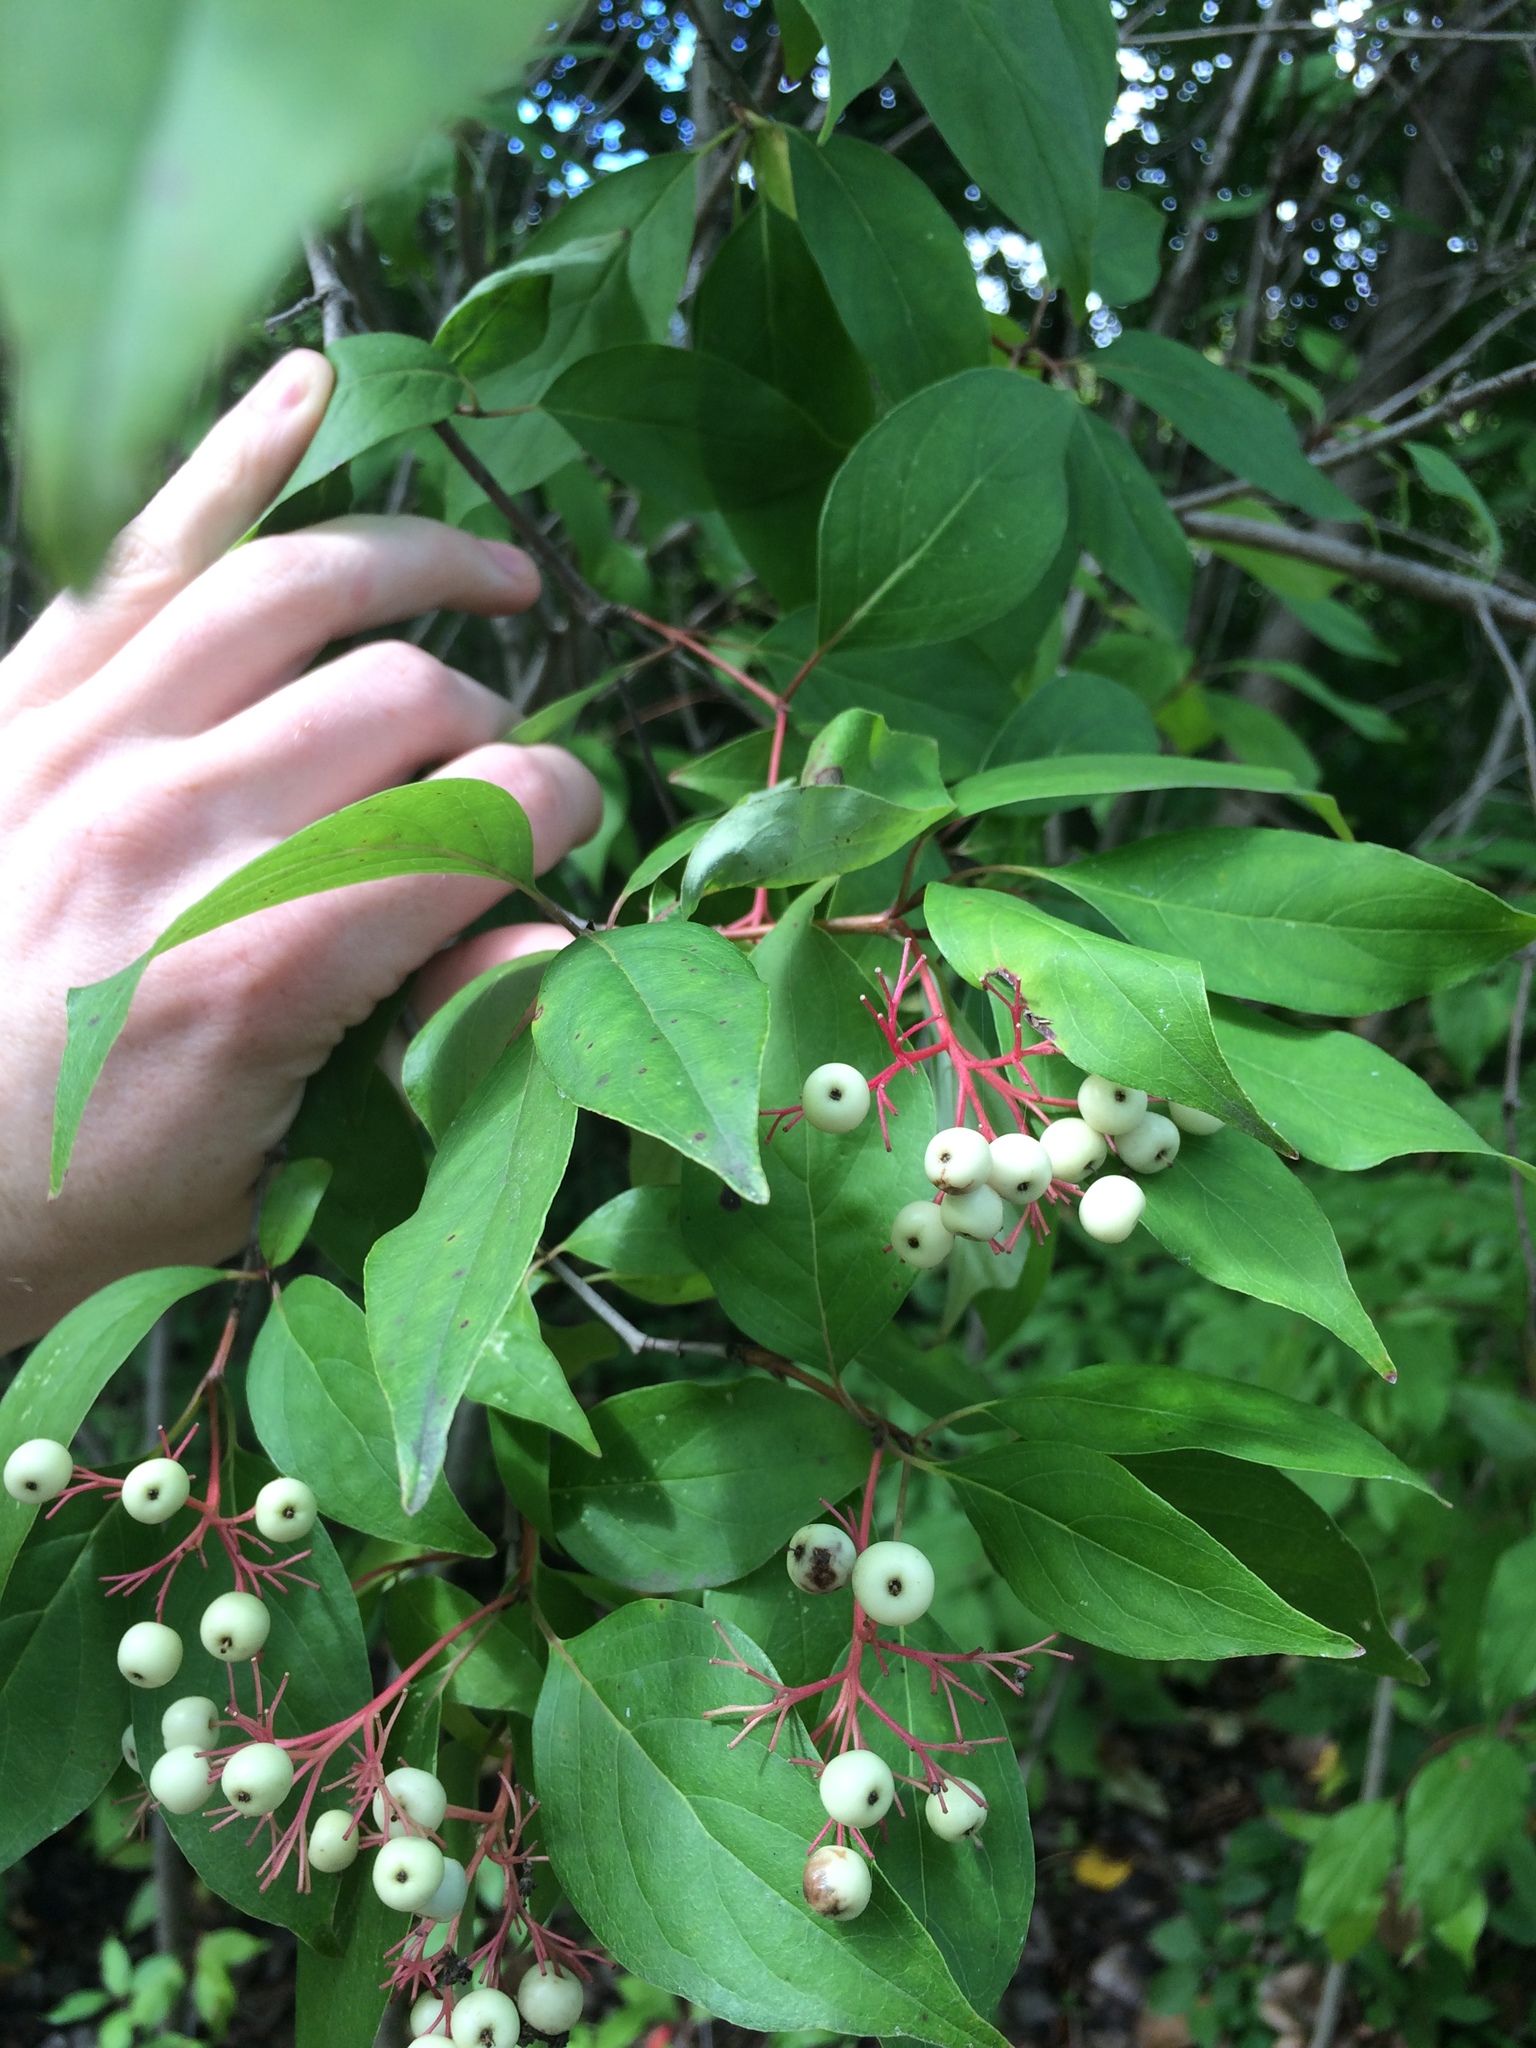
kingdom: Plantae
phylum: Tracheophyta
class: Magnoliopsida
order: Cornales
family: Cornaceae
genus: Cornus
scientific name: Cornus racemosa
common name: Panicled dogwood
